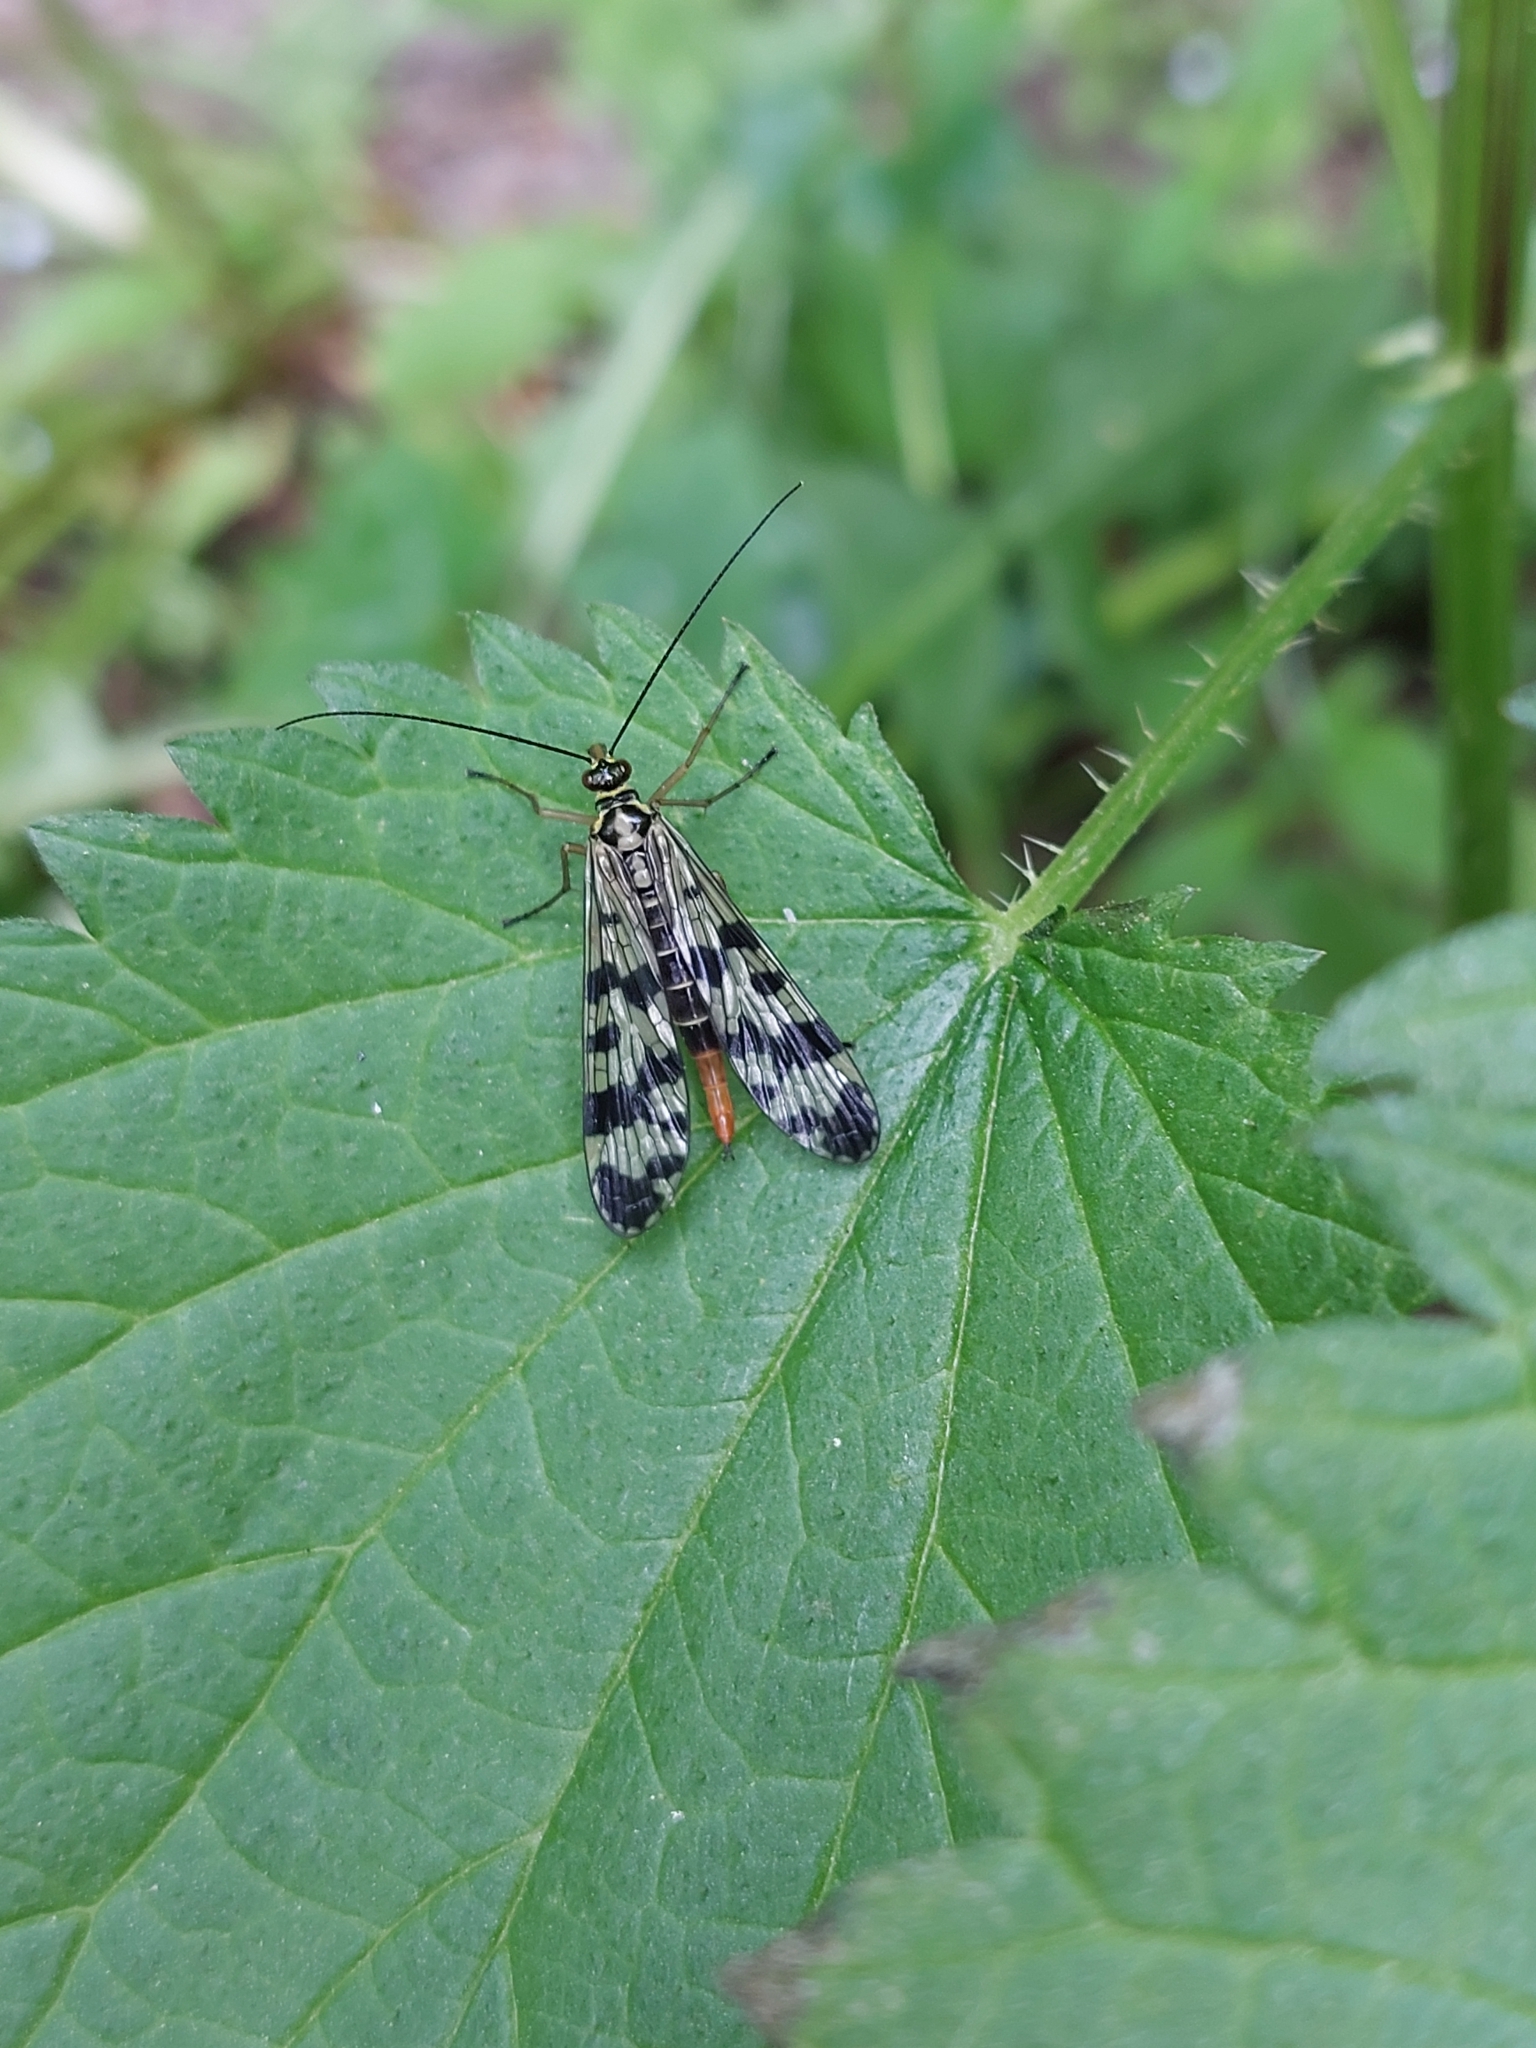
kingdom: Animalia
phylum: Arthropoda
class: Insecta
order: Mecoptera
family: Panorpidae
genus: Panorpa
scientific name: Panorpa communis
